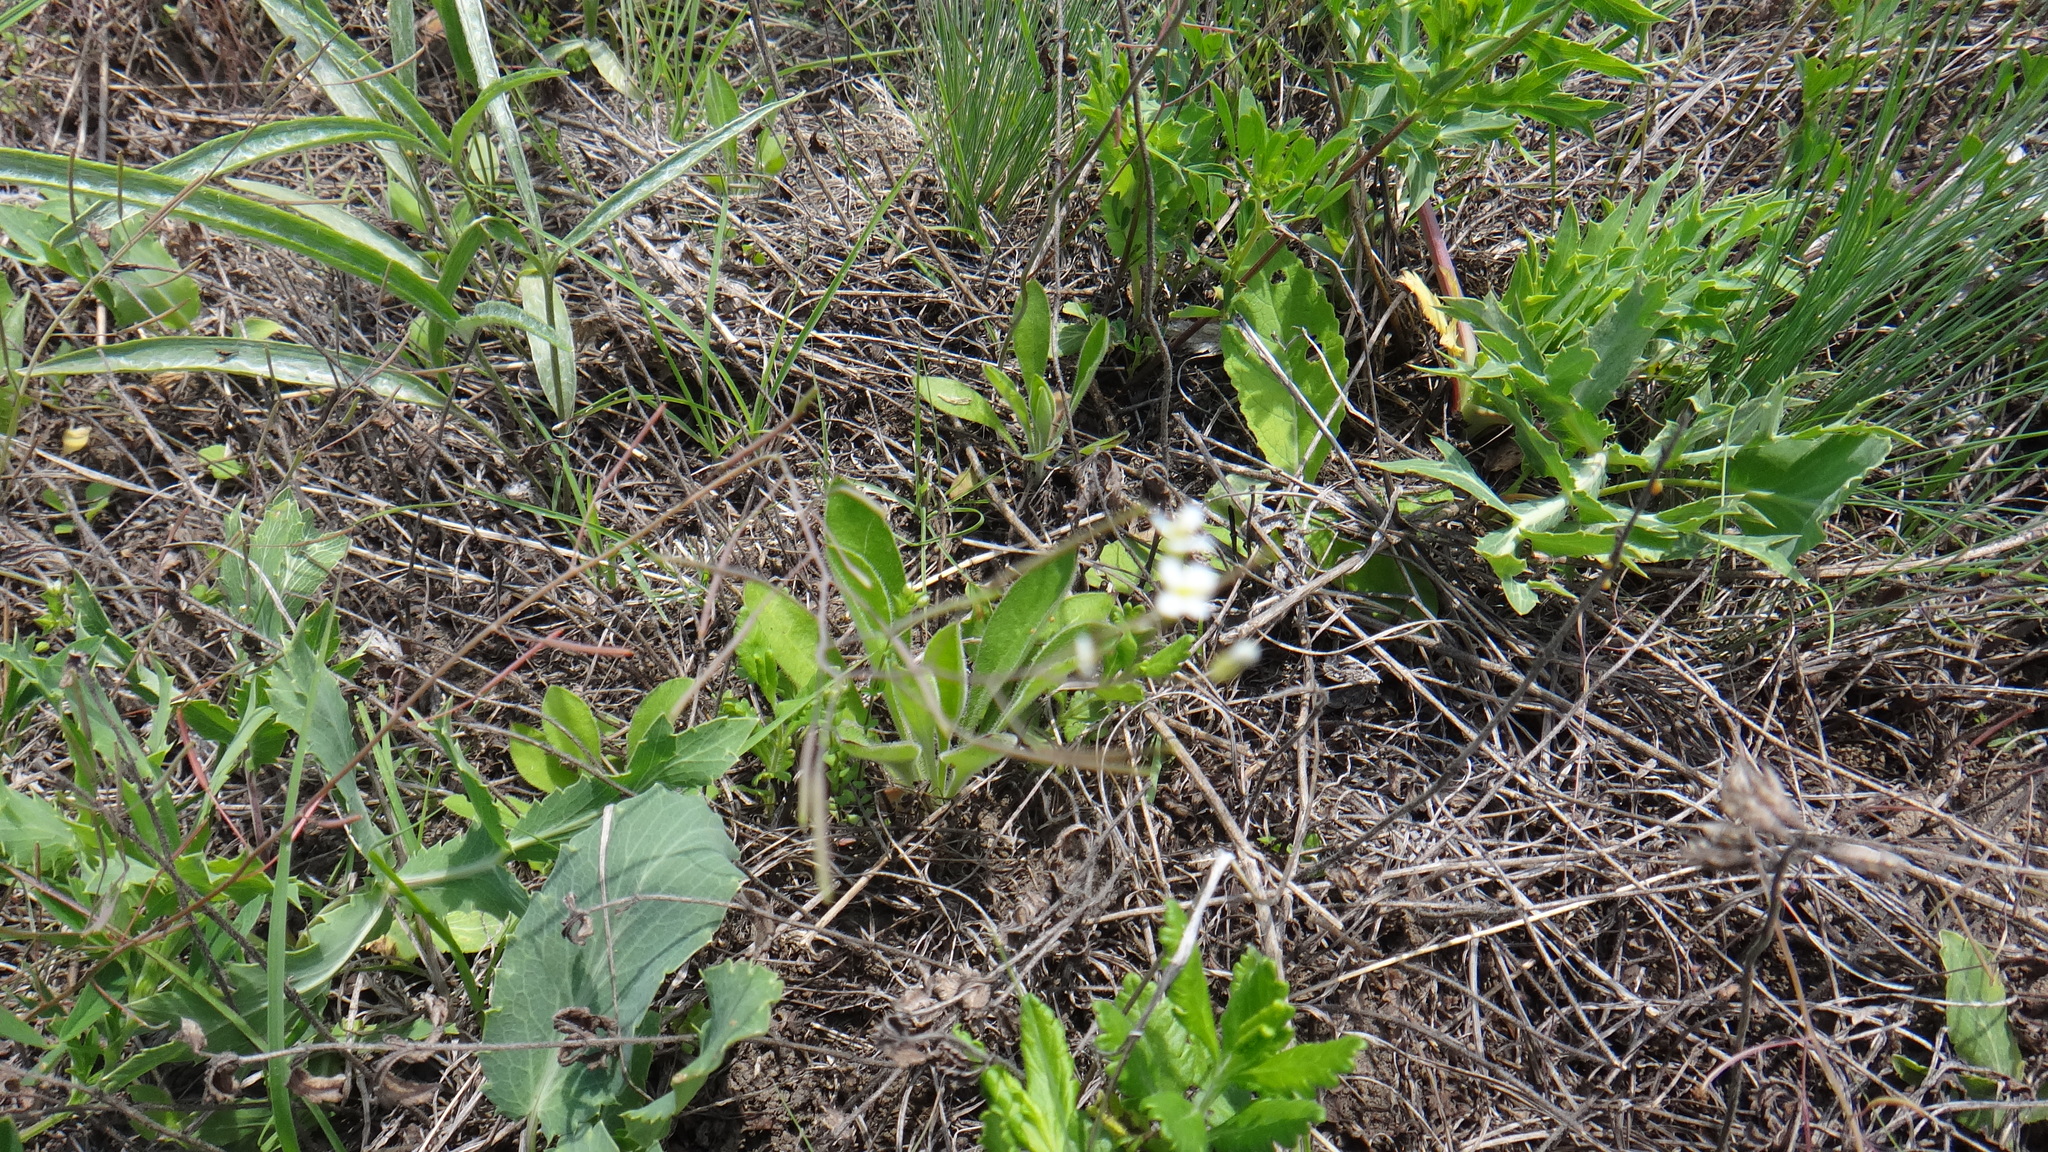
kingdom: Plantae
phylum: Tracheophyta
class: Magnoliopsida
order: Brassicales
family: Brassicaceae
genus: Arabidopsis
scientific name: Arabidopsis thaliana
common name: Thale cress
